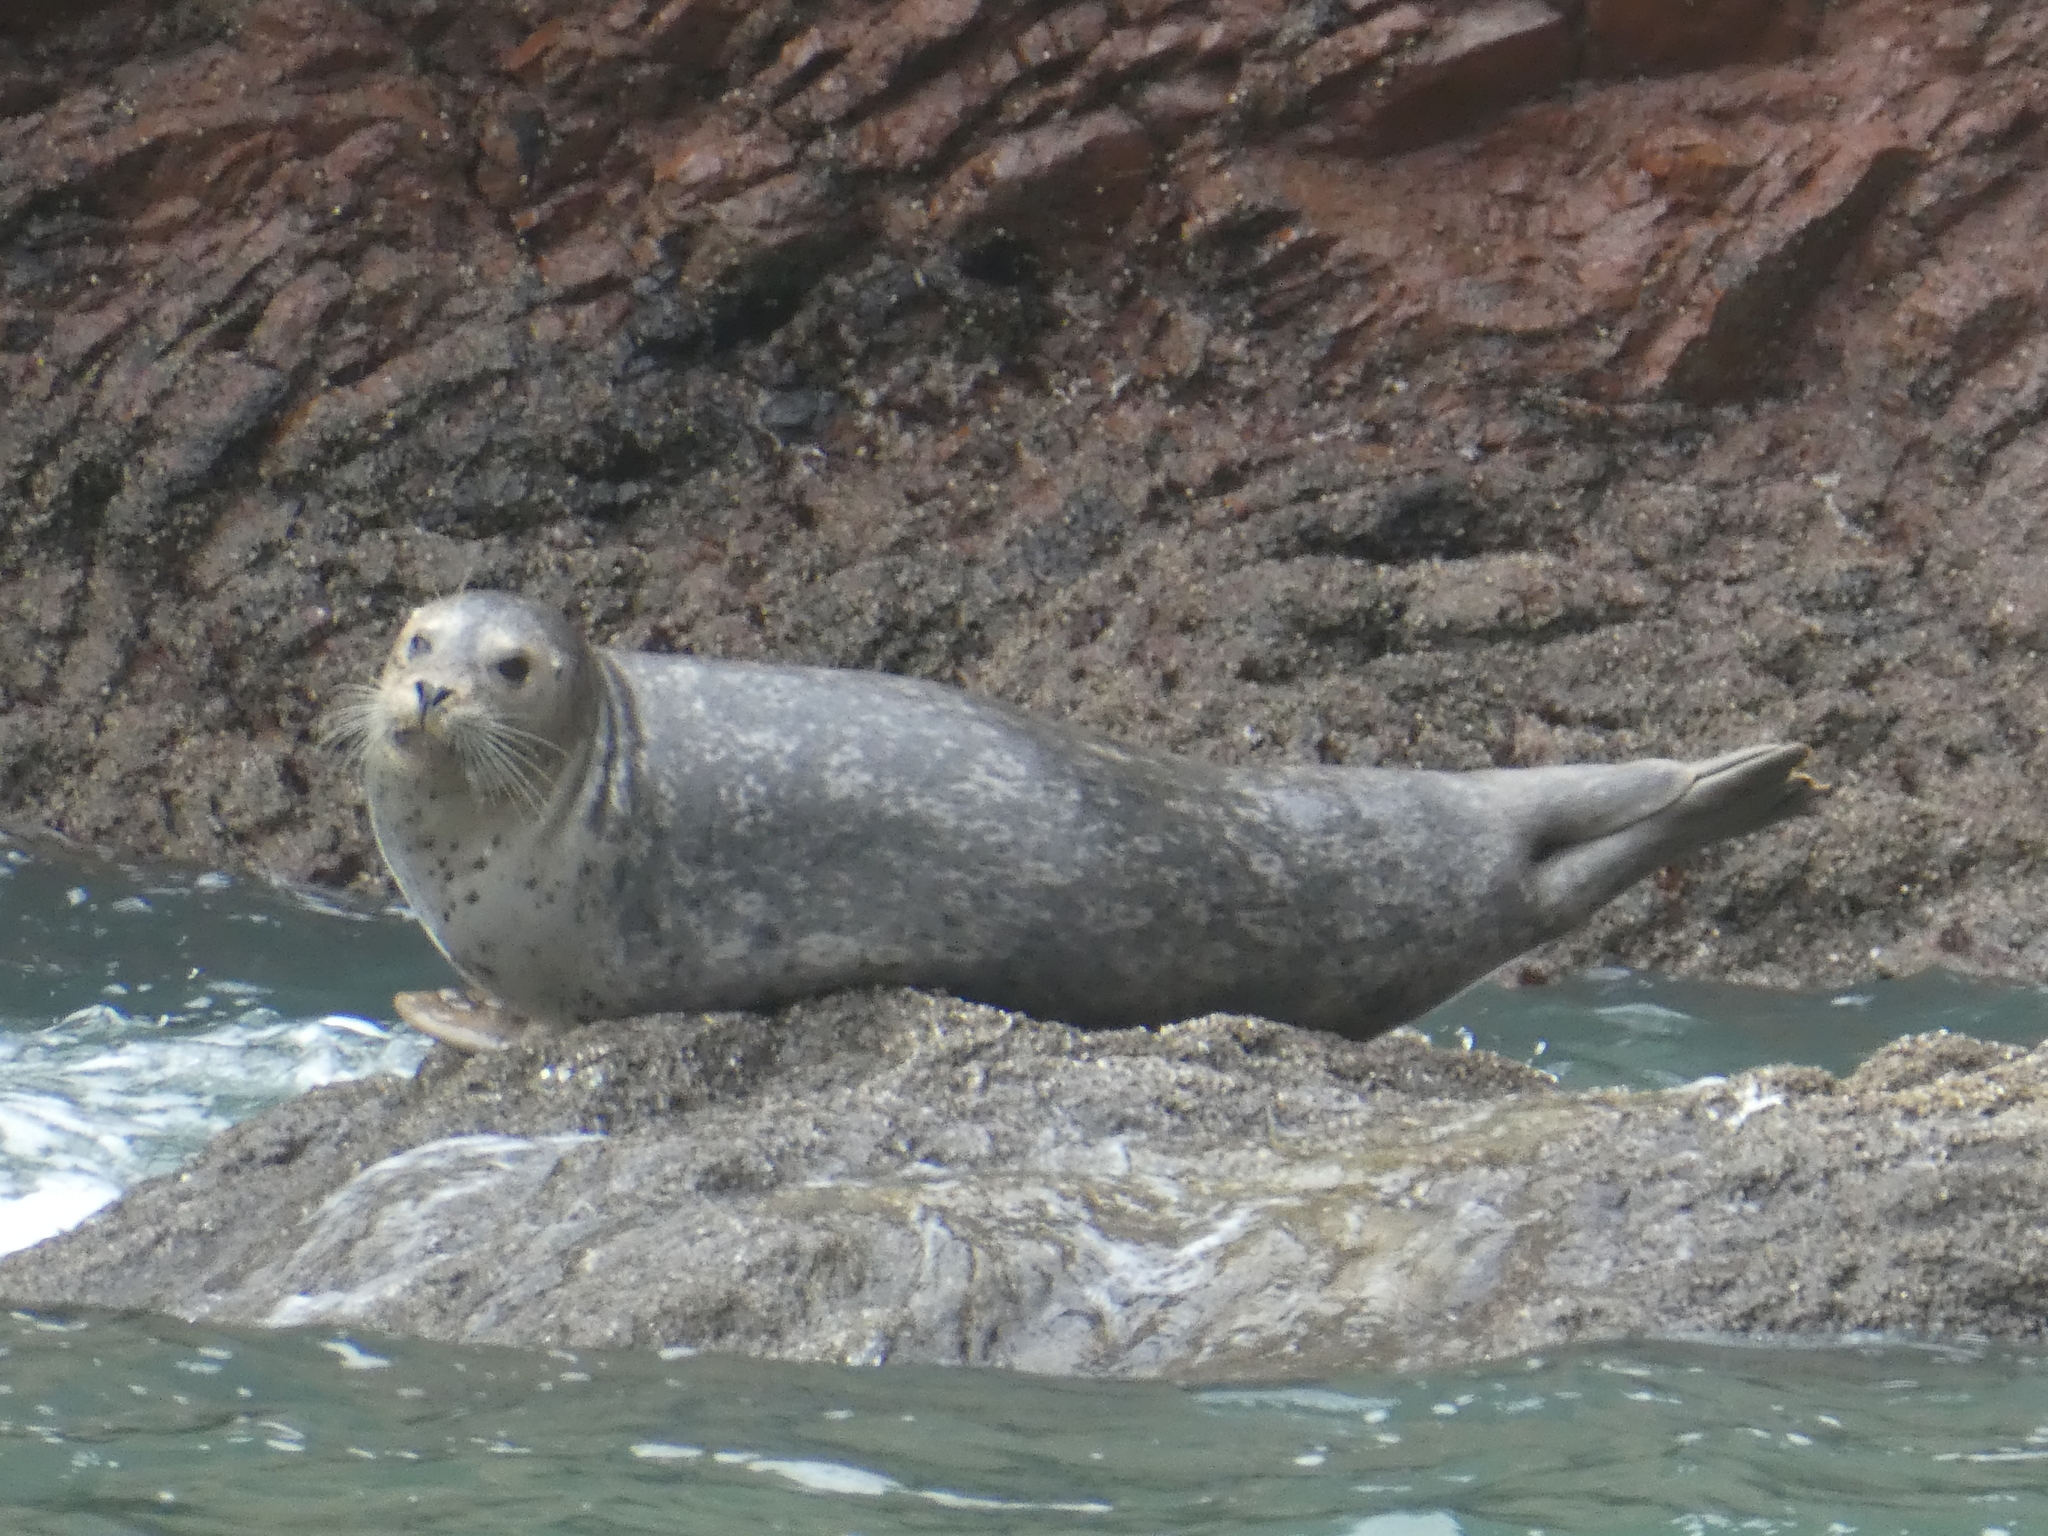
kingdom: Animalia
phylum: Chordata
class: Mammalia
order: Carnivora
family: Phocidae
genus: Phoca
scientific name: Phoca vitulina
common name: Harbor seal
